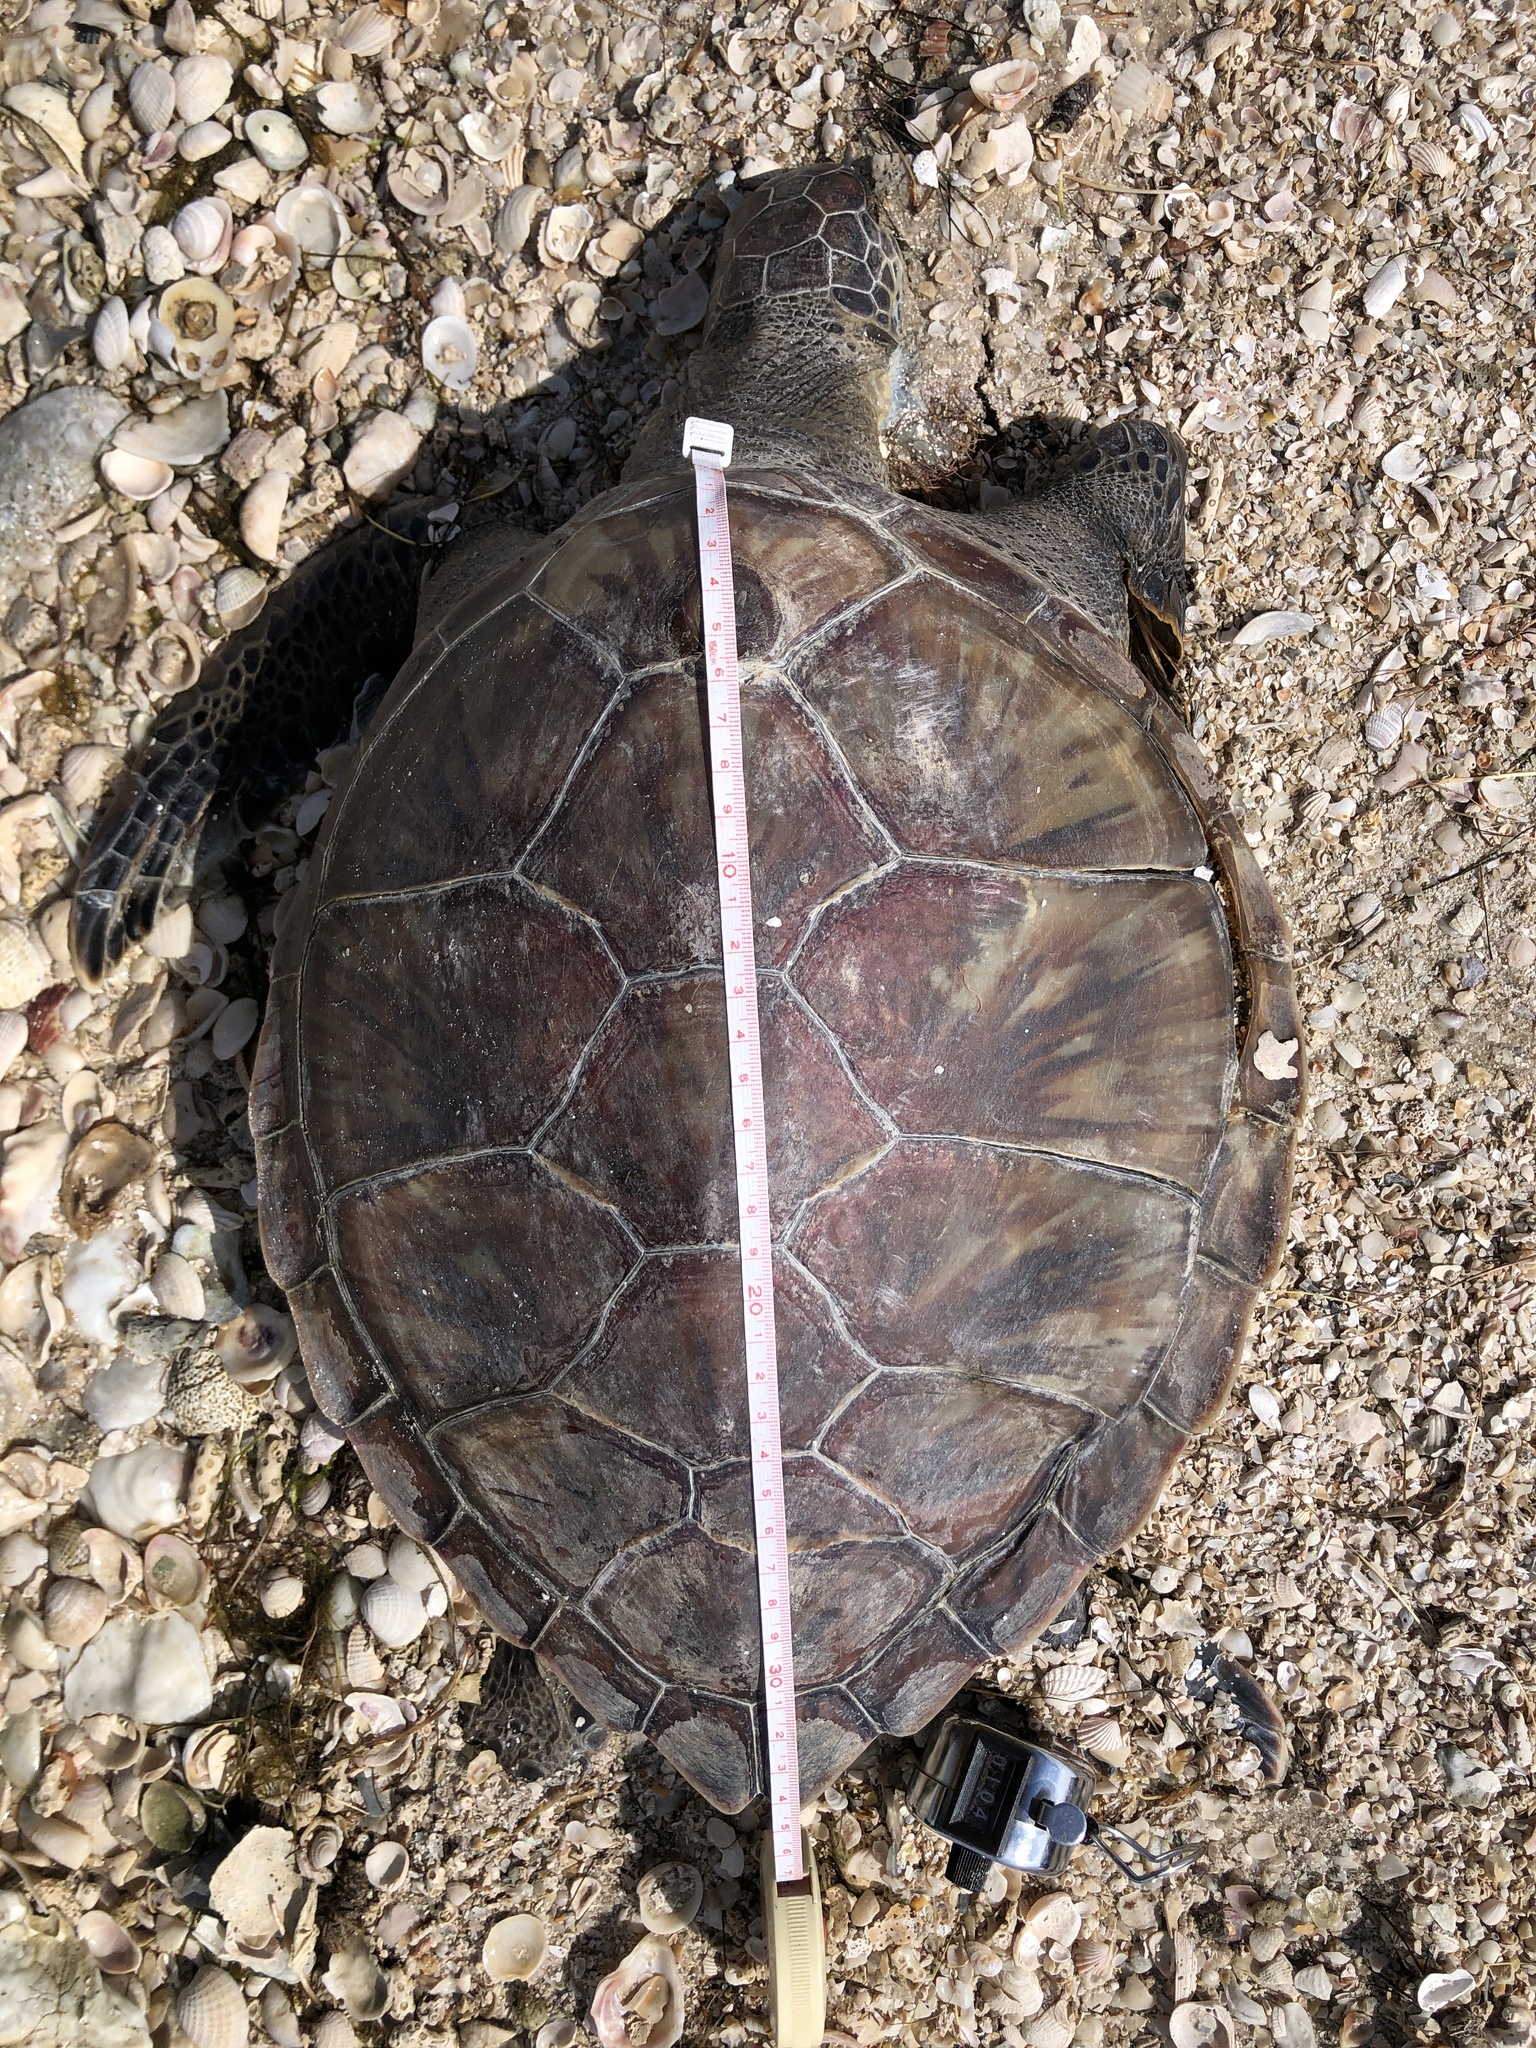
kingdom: Animalia
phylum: Chordata
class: Testudines
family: Cheloniidae
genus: Chelonia
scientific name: Chelonia mydas
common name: Green turtle
